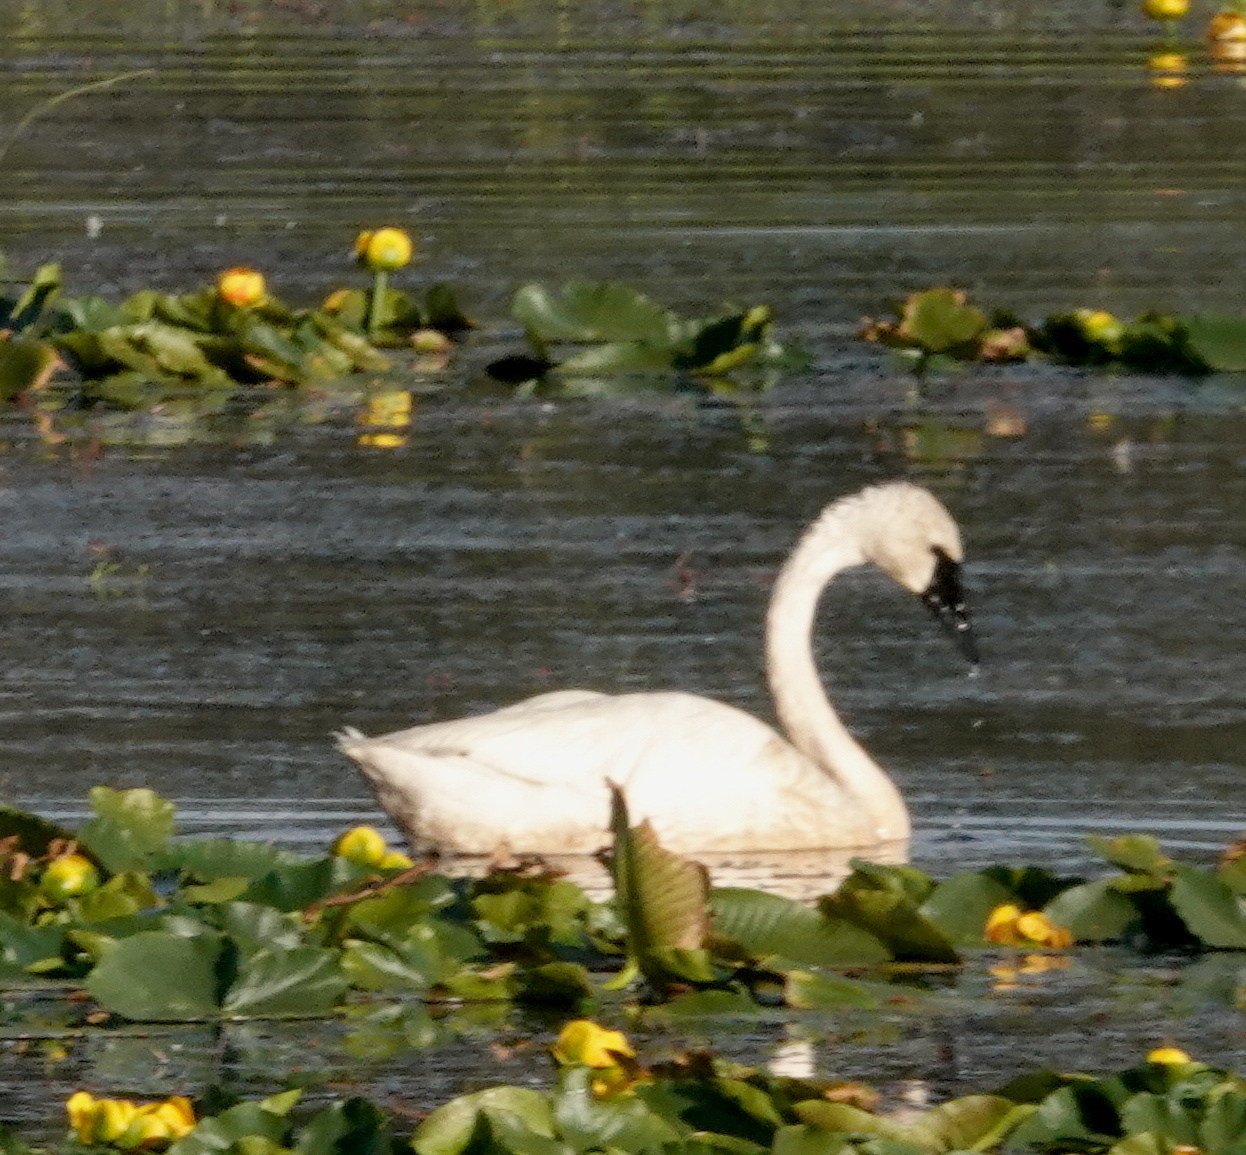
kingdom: Animalia
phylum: Chordata
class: Aves
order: Anseriformes
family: Anatidae
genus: Cygnus
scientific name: Cygnus buccinator
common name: Trumpeter swan
